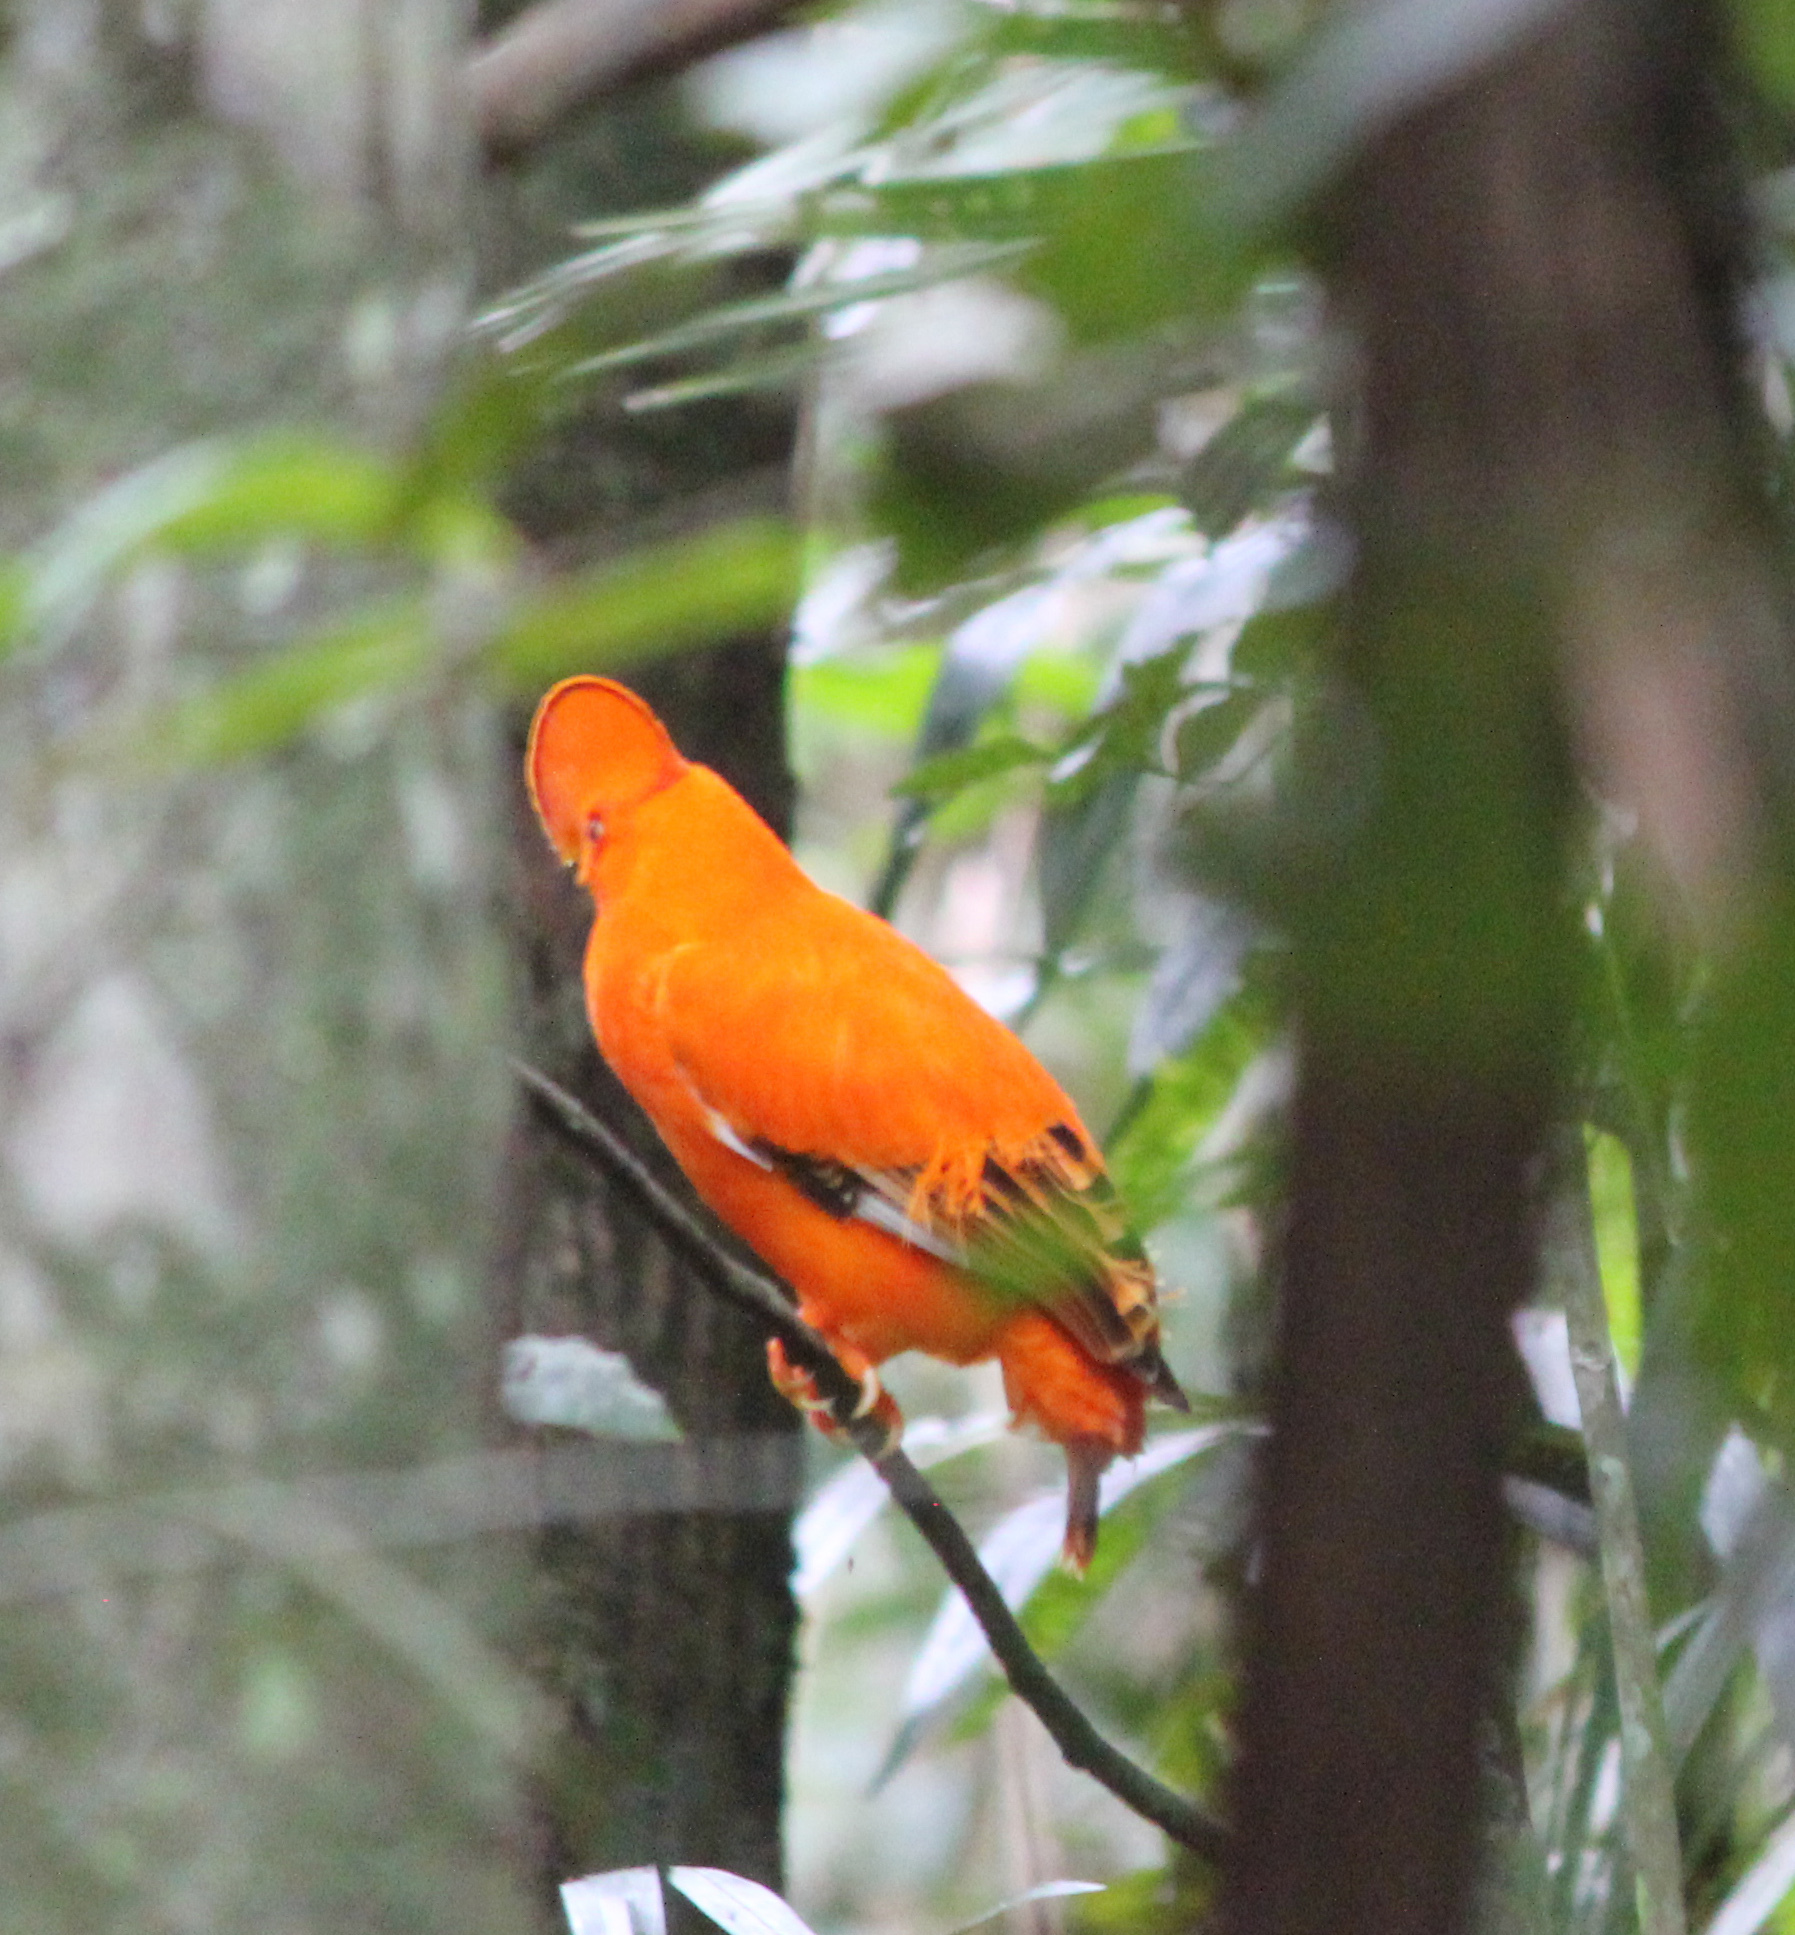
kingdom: Animalia
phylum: Chordata
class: Aves
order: Passeriformes
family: Cotingidae
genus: Rupicola
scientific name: Rupicola rupicola
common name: Guianan cock-of-the-rock
